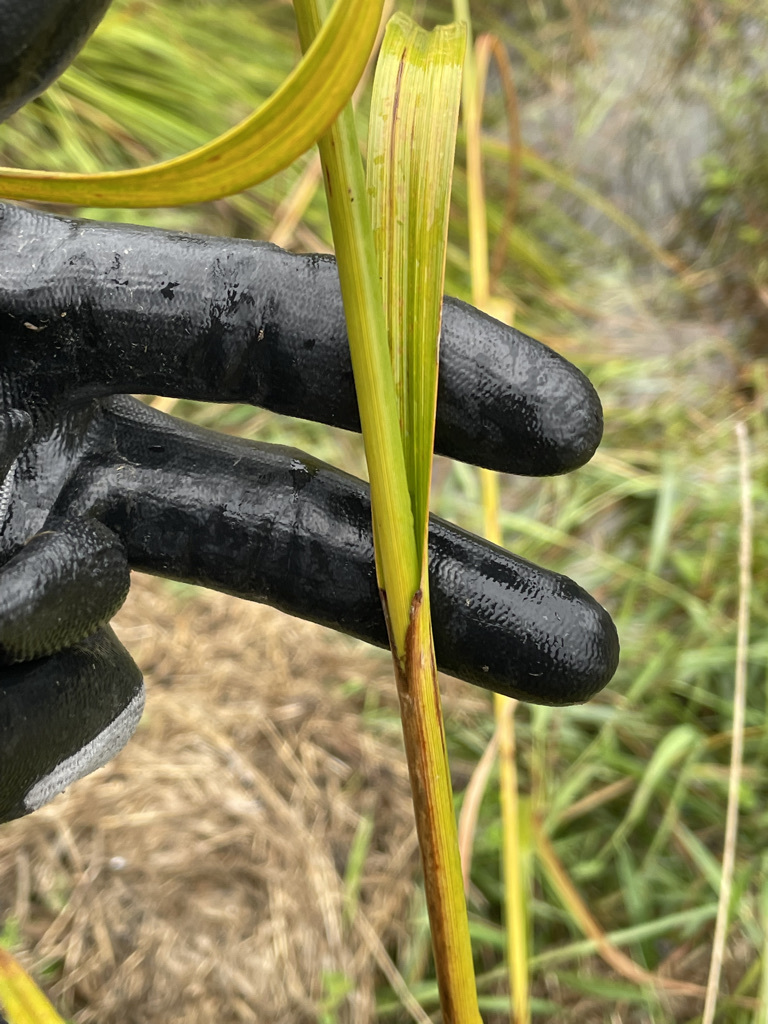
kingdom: Plantae
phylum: Tracheophyta
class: Liliopsida
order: Poales
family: Cyperaceae
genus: Scirpus
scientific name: Scirpus cyperinus
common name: Black-sheathed bulrush
